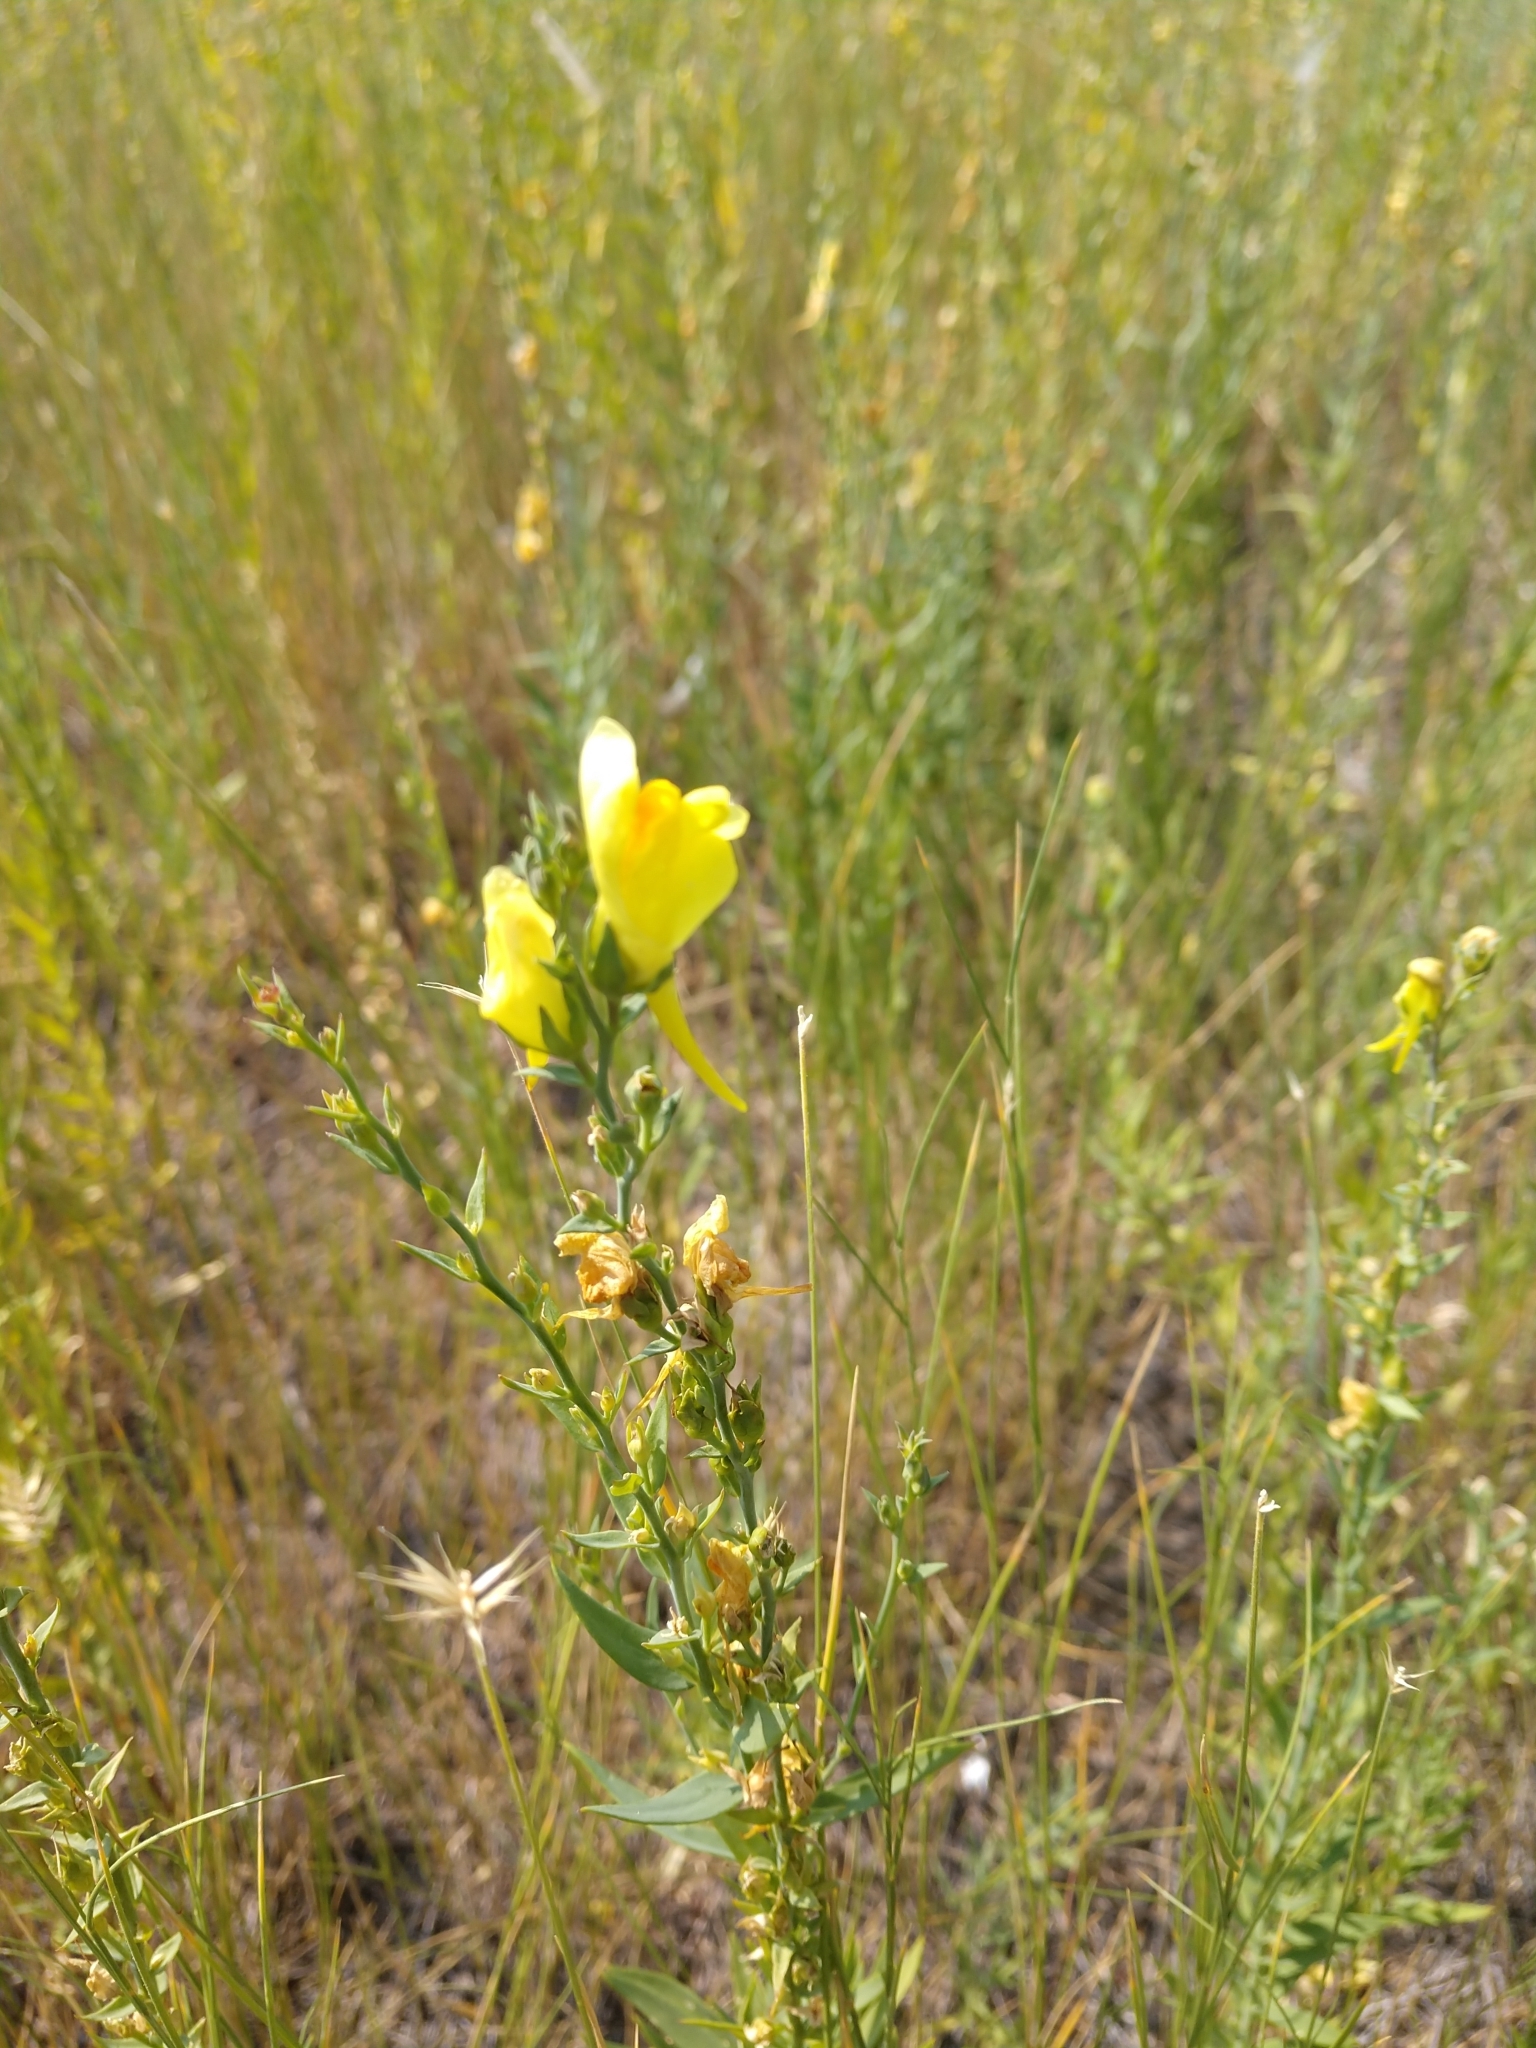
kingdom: Plantae
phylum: Tracheophyta
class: Magnoliopsida
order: Lamiales
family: Plantaginaceae
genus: Linaria
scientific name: Linaria dalmatica
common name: Dalmatian toadflax
